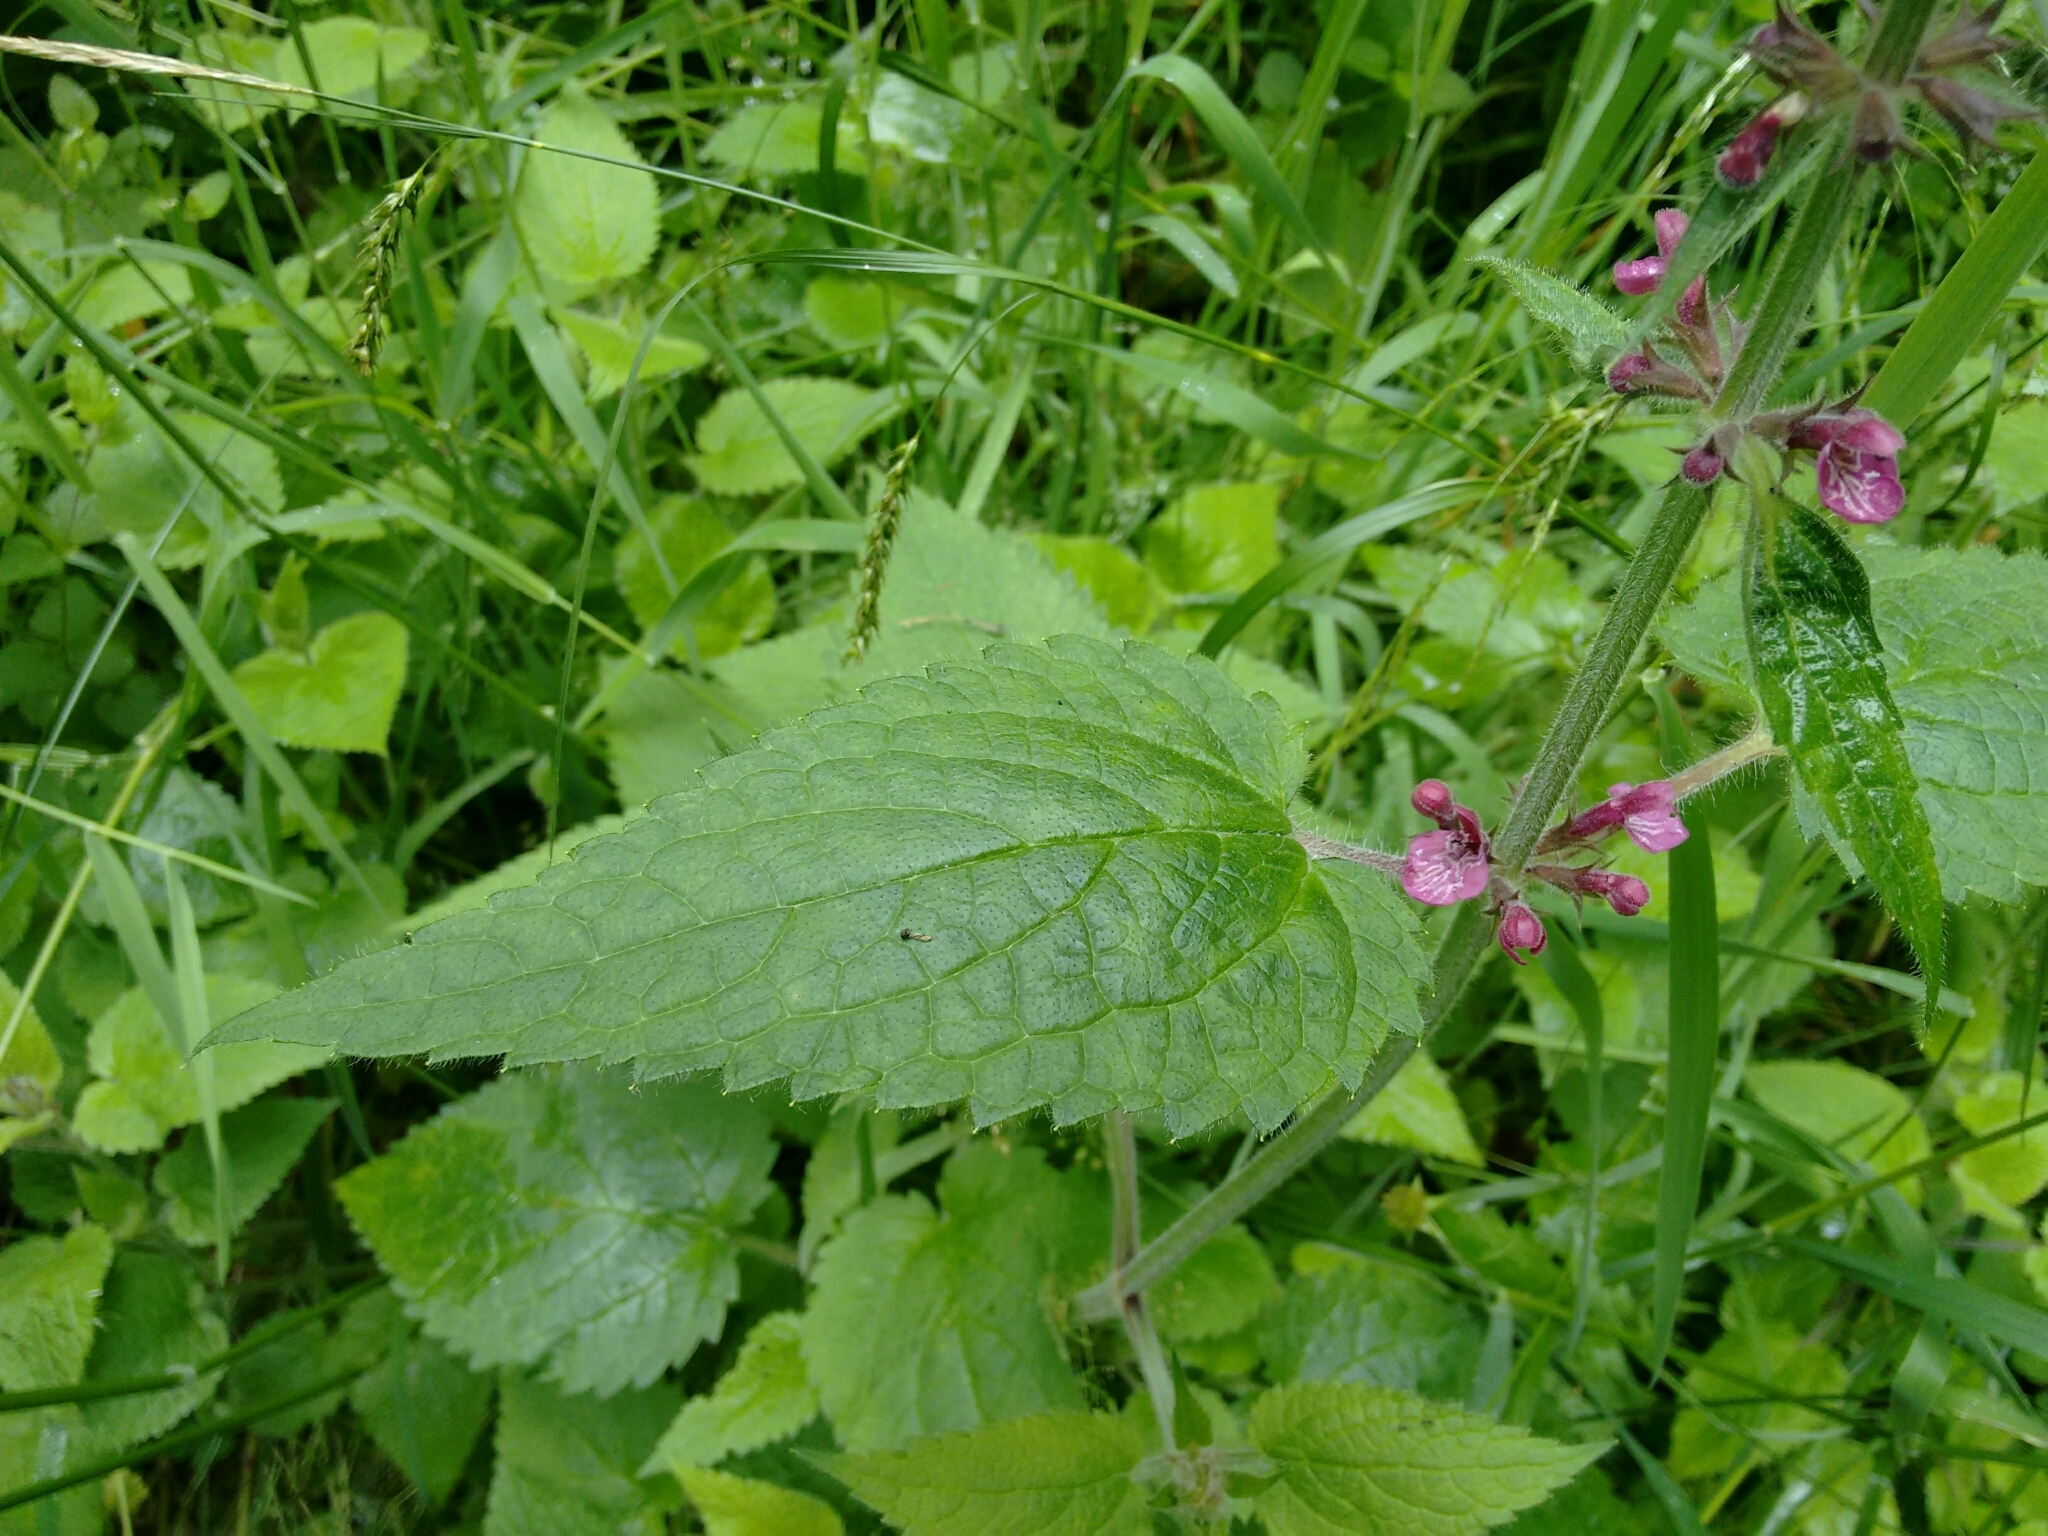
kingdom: Plantae
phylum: Tracheophyta
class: Magnoliopsida
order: Lamiales
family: Lamiaceae
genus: Stachys
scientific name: Stachys sylvatica
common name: Hedge woundwort
